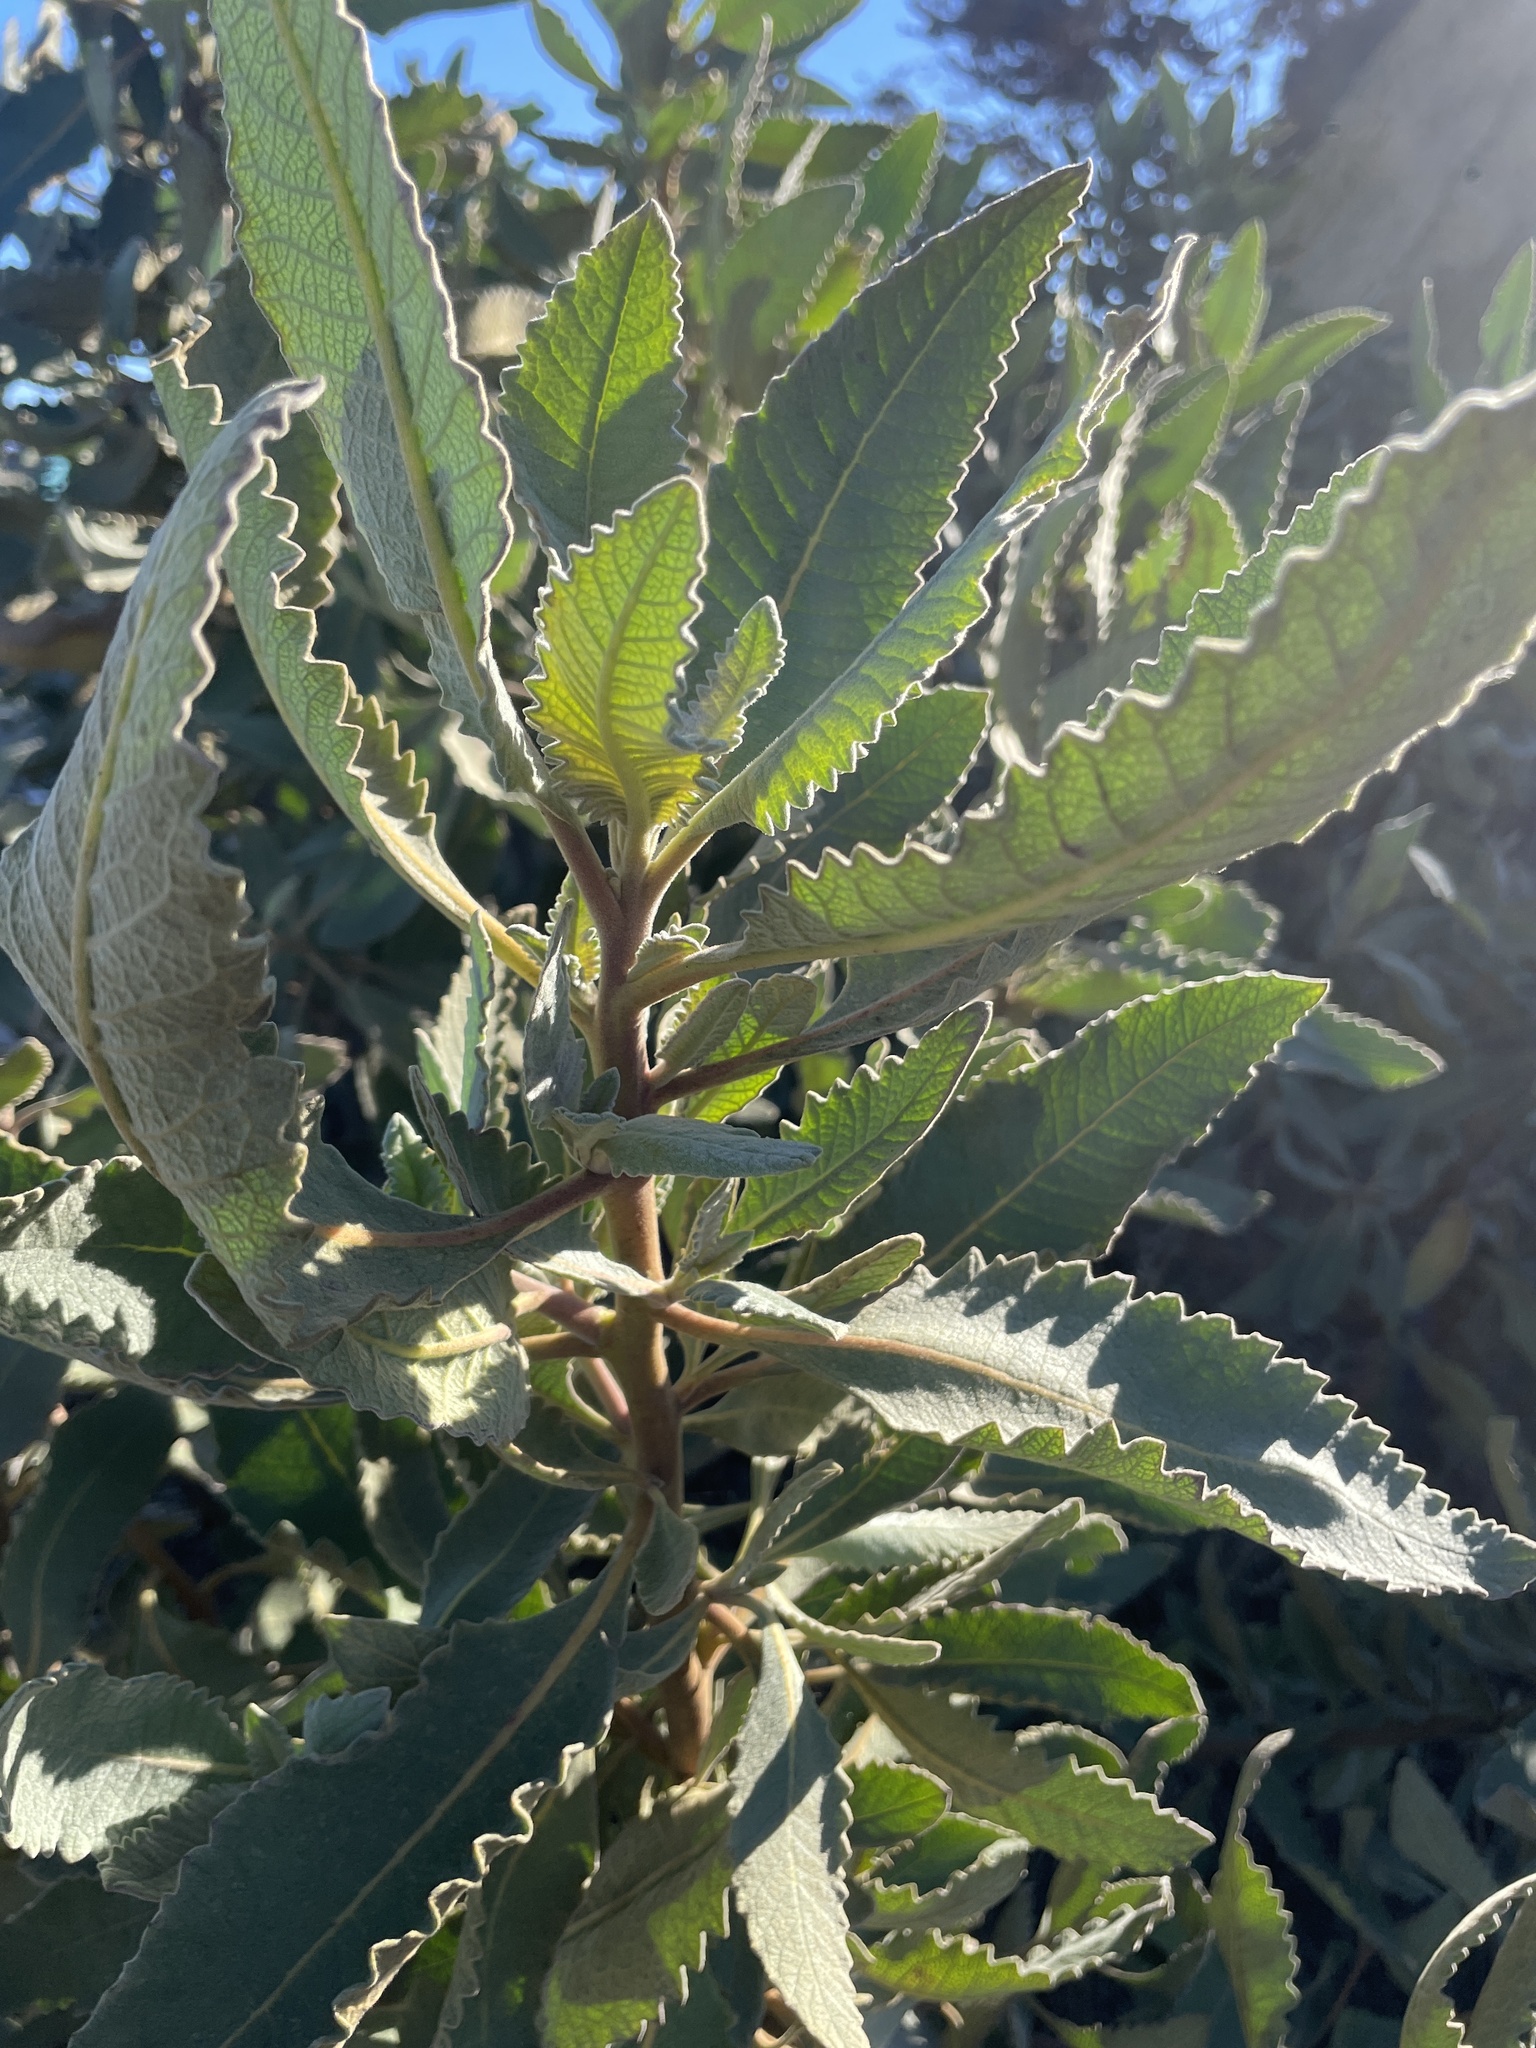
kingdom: Plantae
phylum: Tracheophyta
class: Magnoliopsida
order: Boraginales
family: Namaceae
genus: Eriodictyon
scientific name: Eriodictyon crassifolium
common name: Thick-leaf yerba-santa
